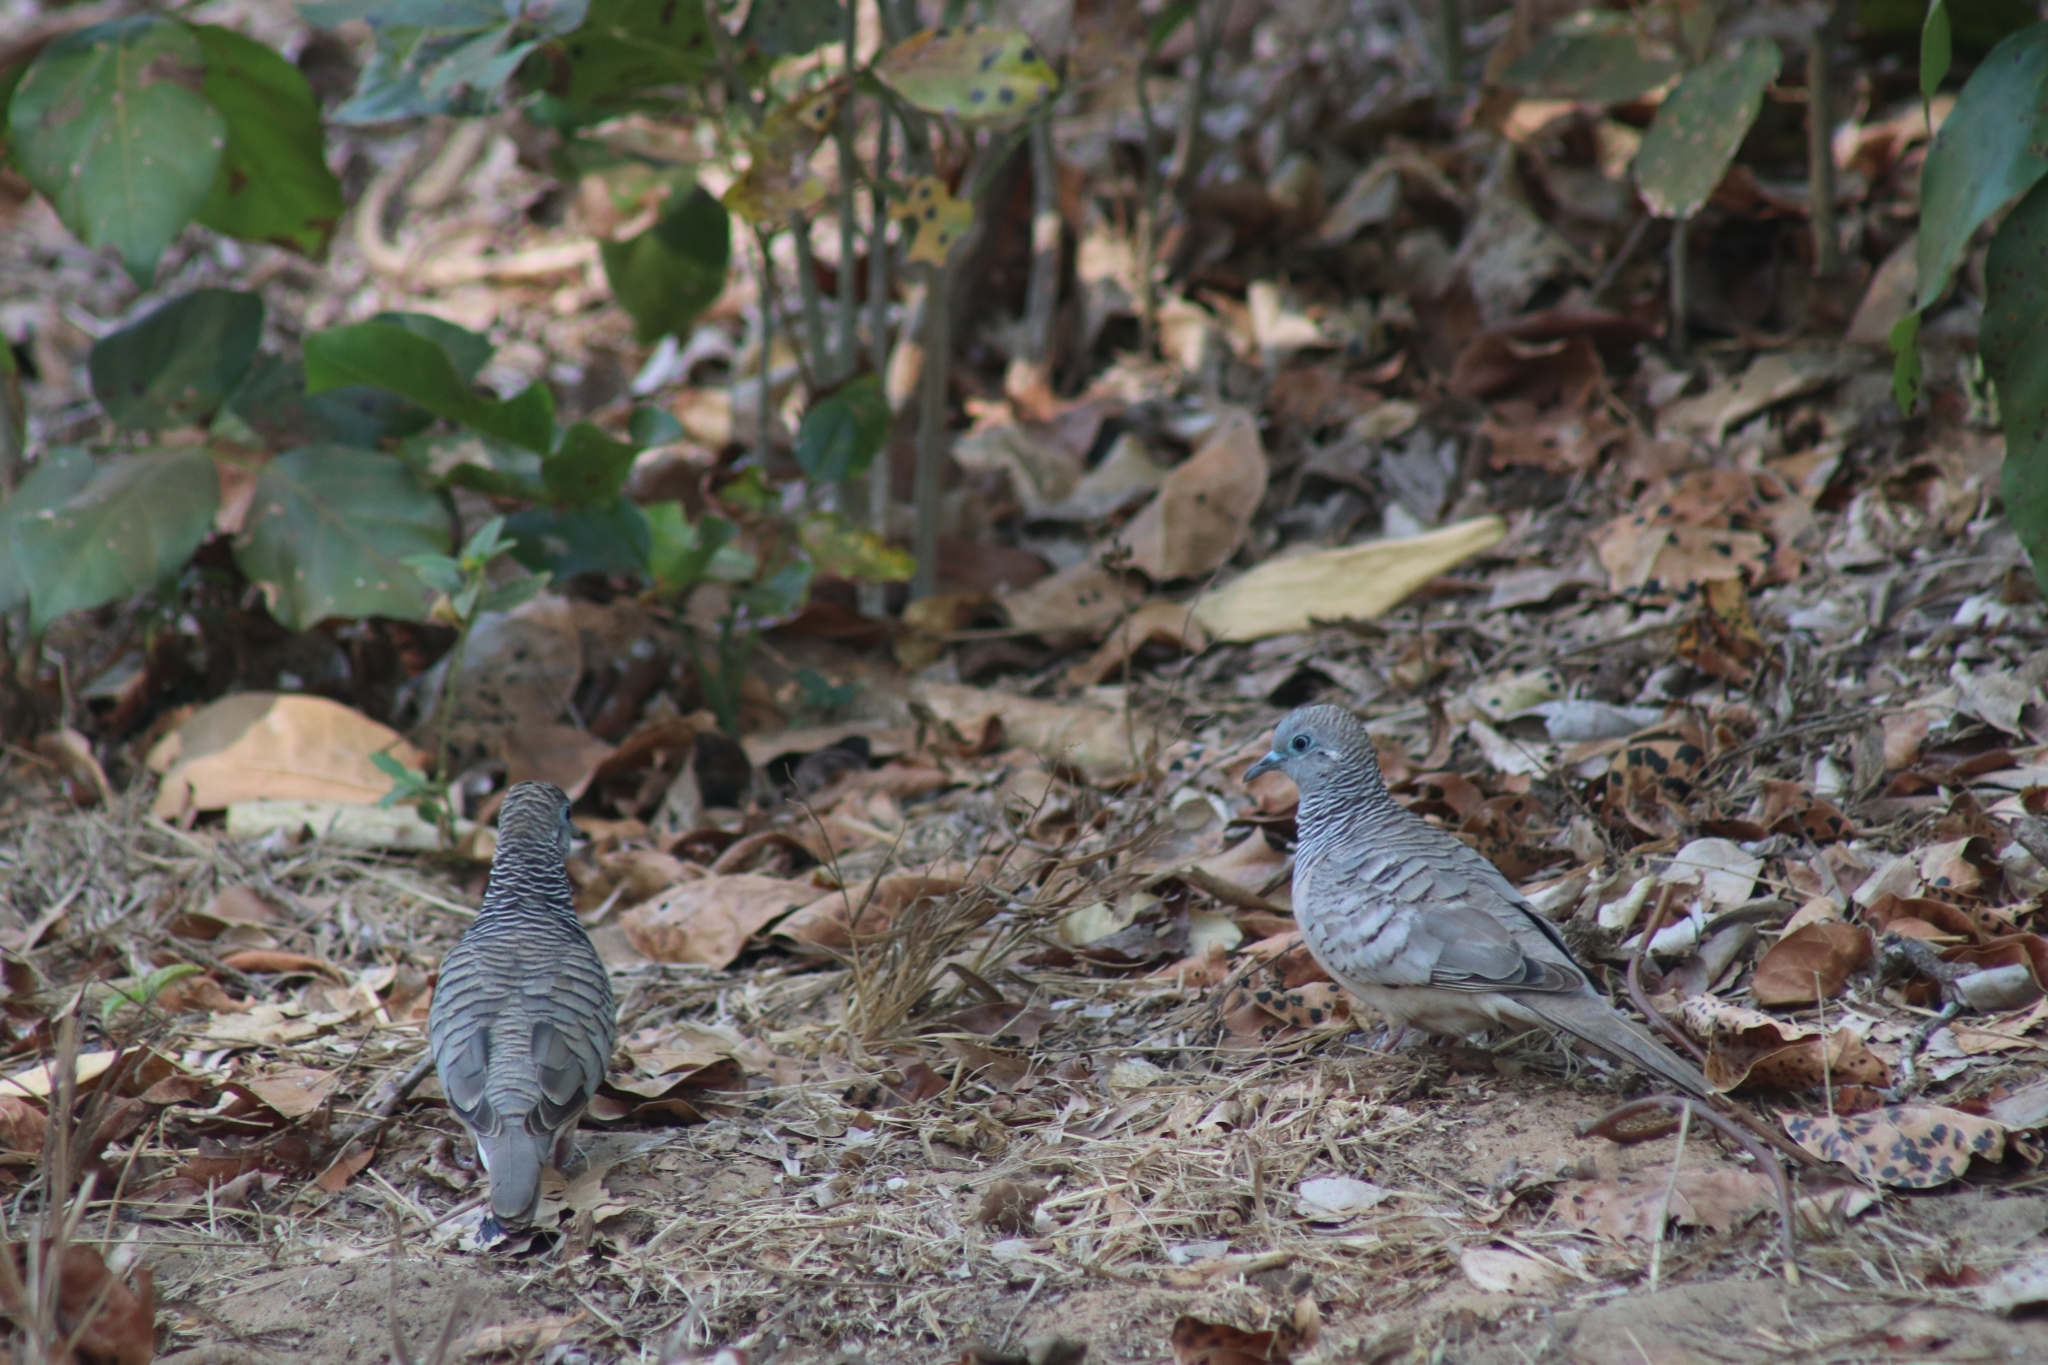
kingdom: Animalia
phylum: Chordata
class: Aves
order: Columbiformes
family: Columbidae
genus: Geopelia
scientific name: Geopelia placida
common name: Peaceful dove
